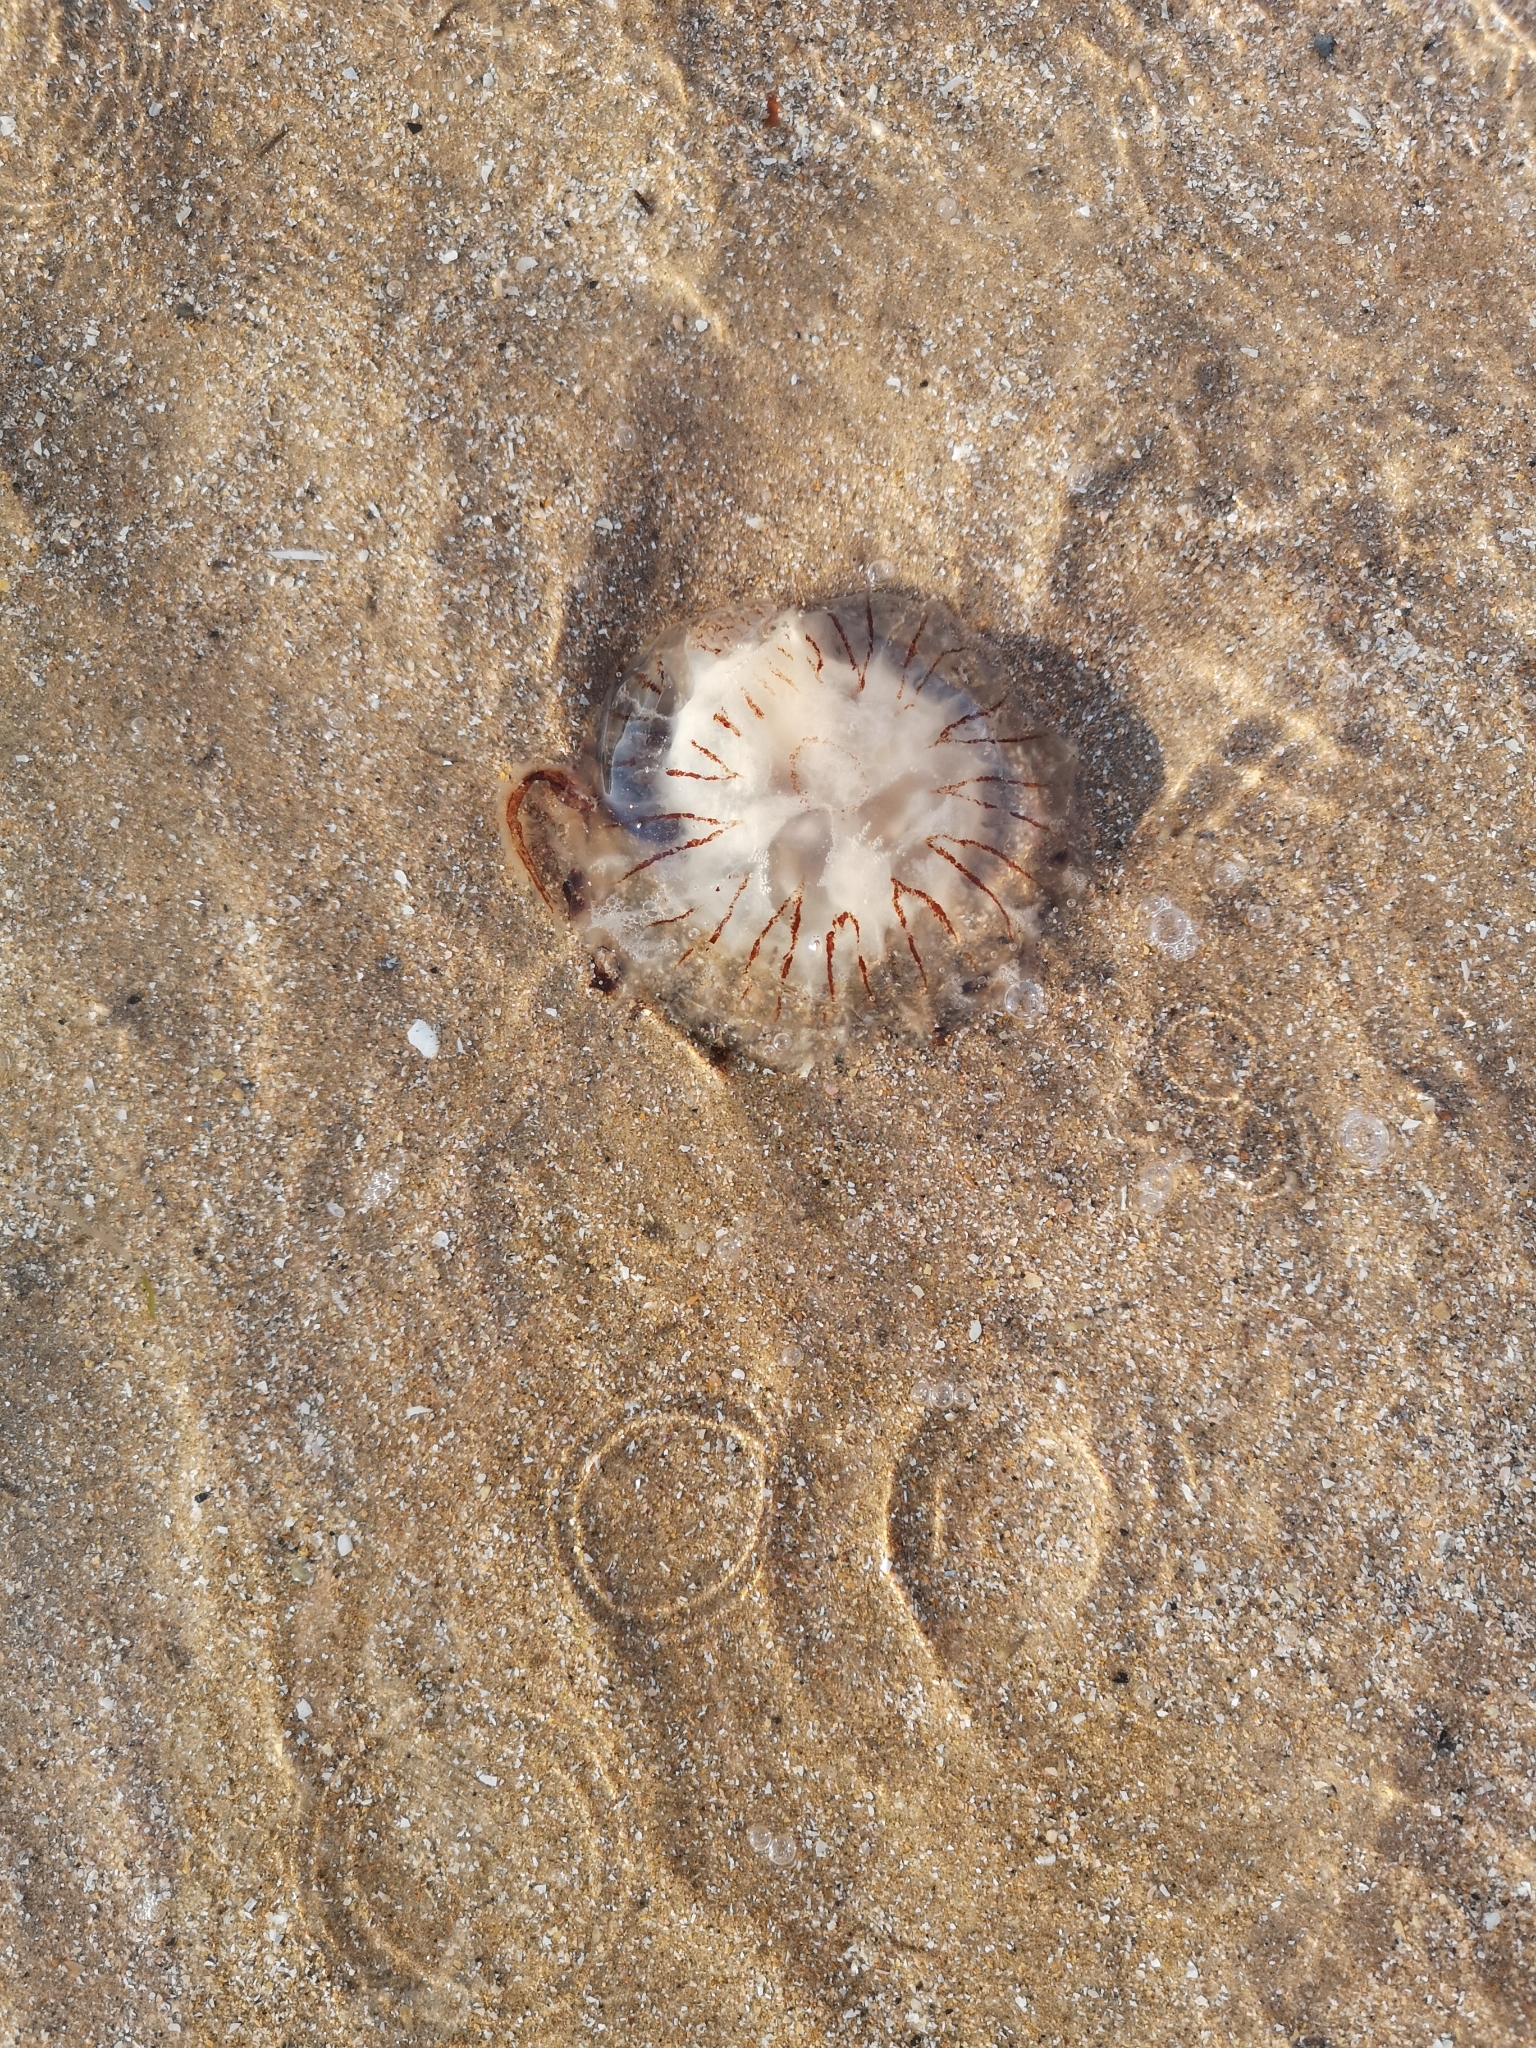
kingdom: Animalia
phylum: Cnidaria
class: Scyphozoa
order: Semaeostomeae
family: Pelagiidae
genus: Chrysaora
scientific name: Chrysaora hysoscella
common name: Compass jellyfish
